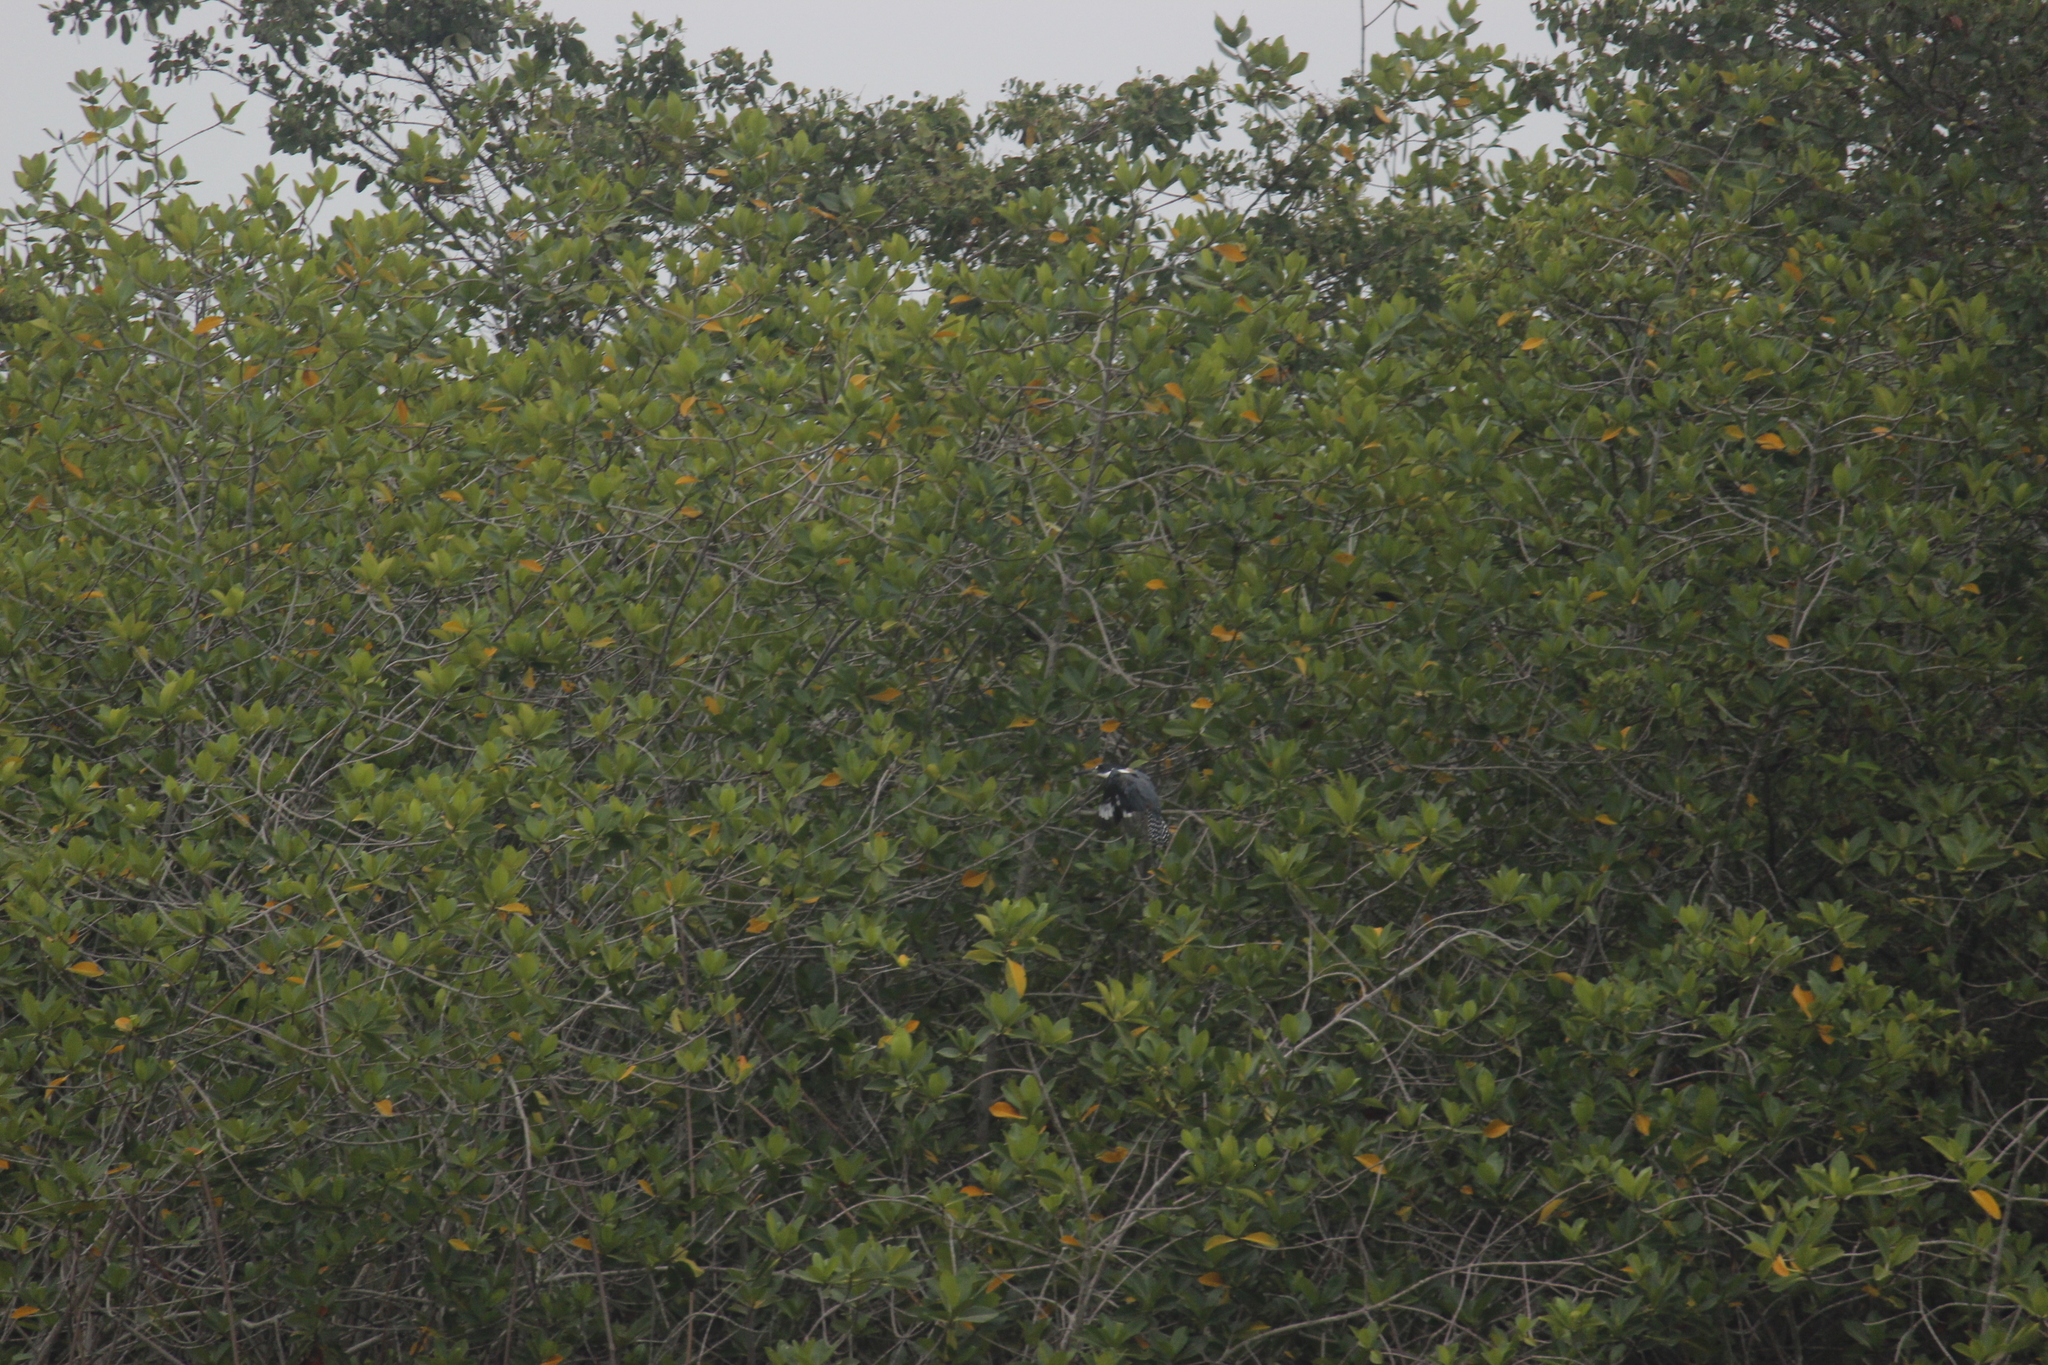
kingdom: Animalia
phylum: Chordata
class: Aves
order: Coraciiformes
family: Alcedinidae
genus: Megaceryle
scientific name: Megaceryle torquata
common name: Ringed kingfisher
